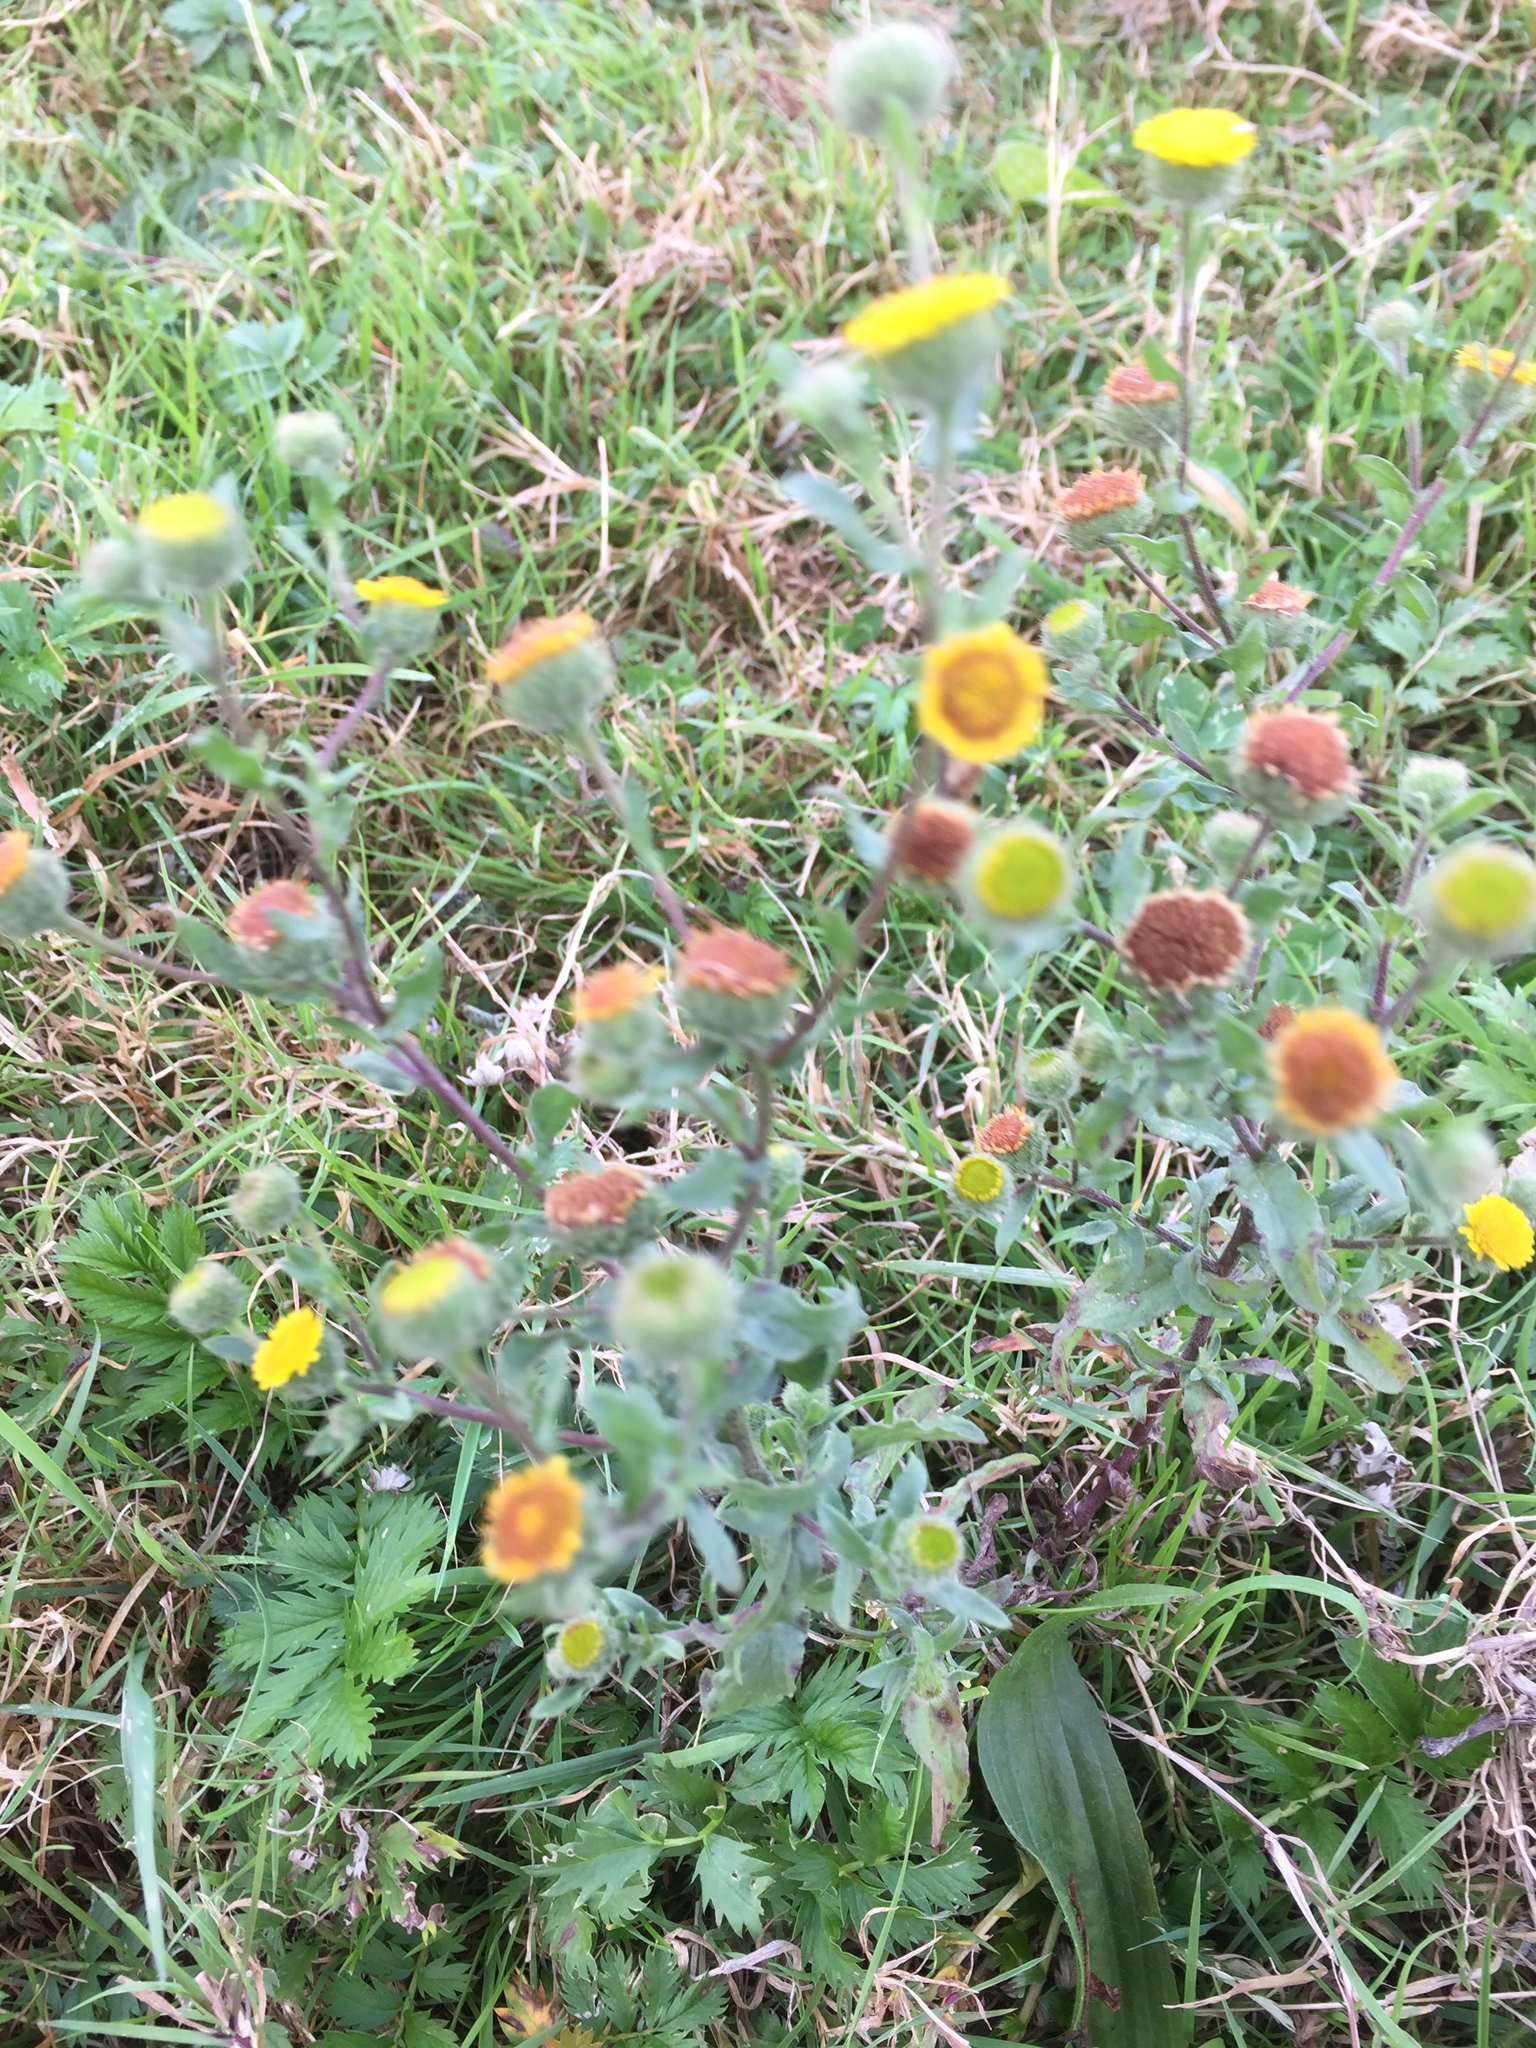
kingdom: Plantae
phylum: Tracheophyta
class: Magnoliopsida
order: Asterales
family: Asteraceae
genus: Pulicaria
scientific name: Pulicaria vulgaris
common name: Small fleabane
